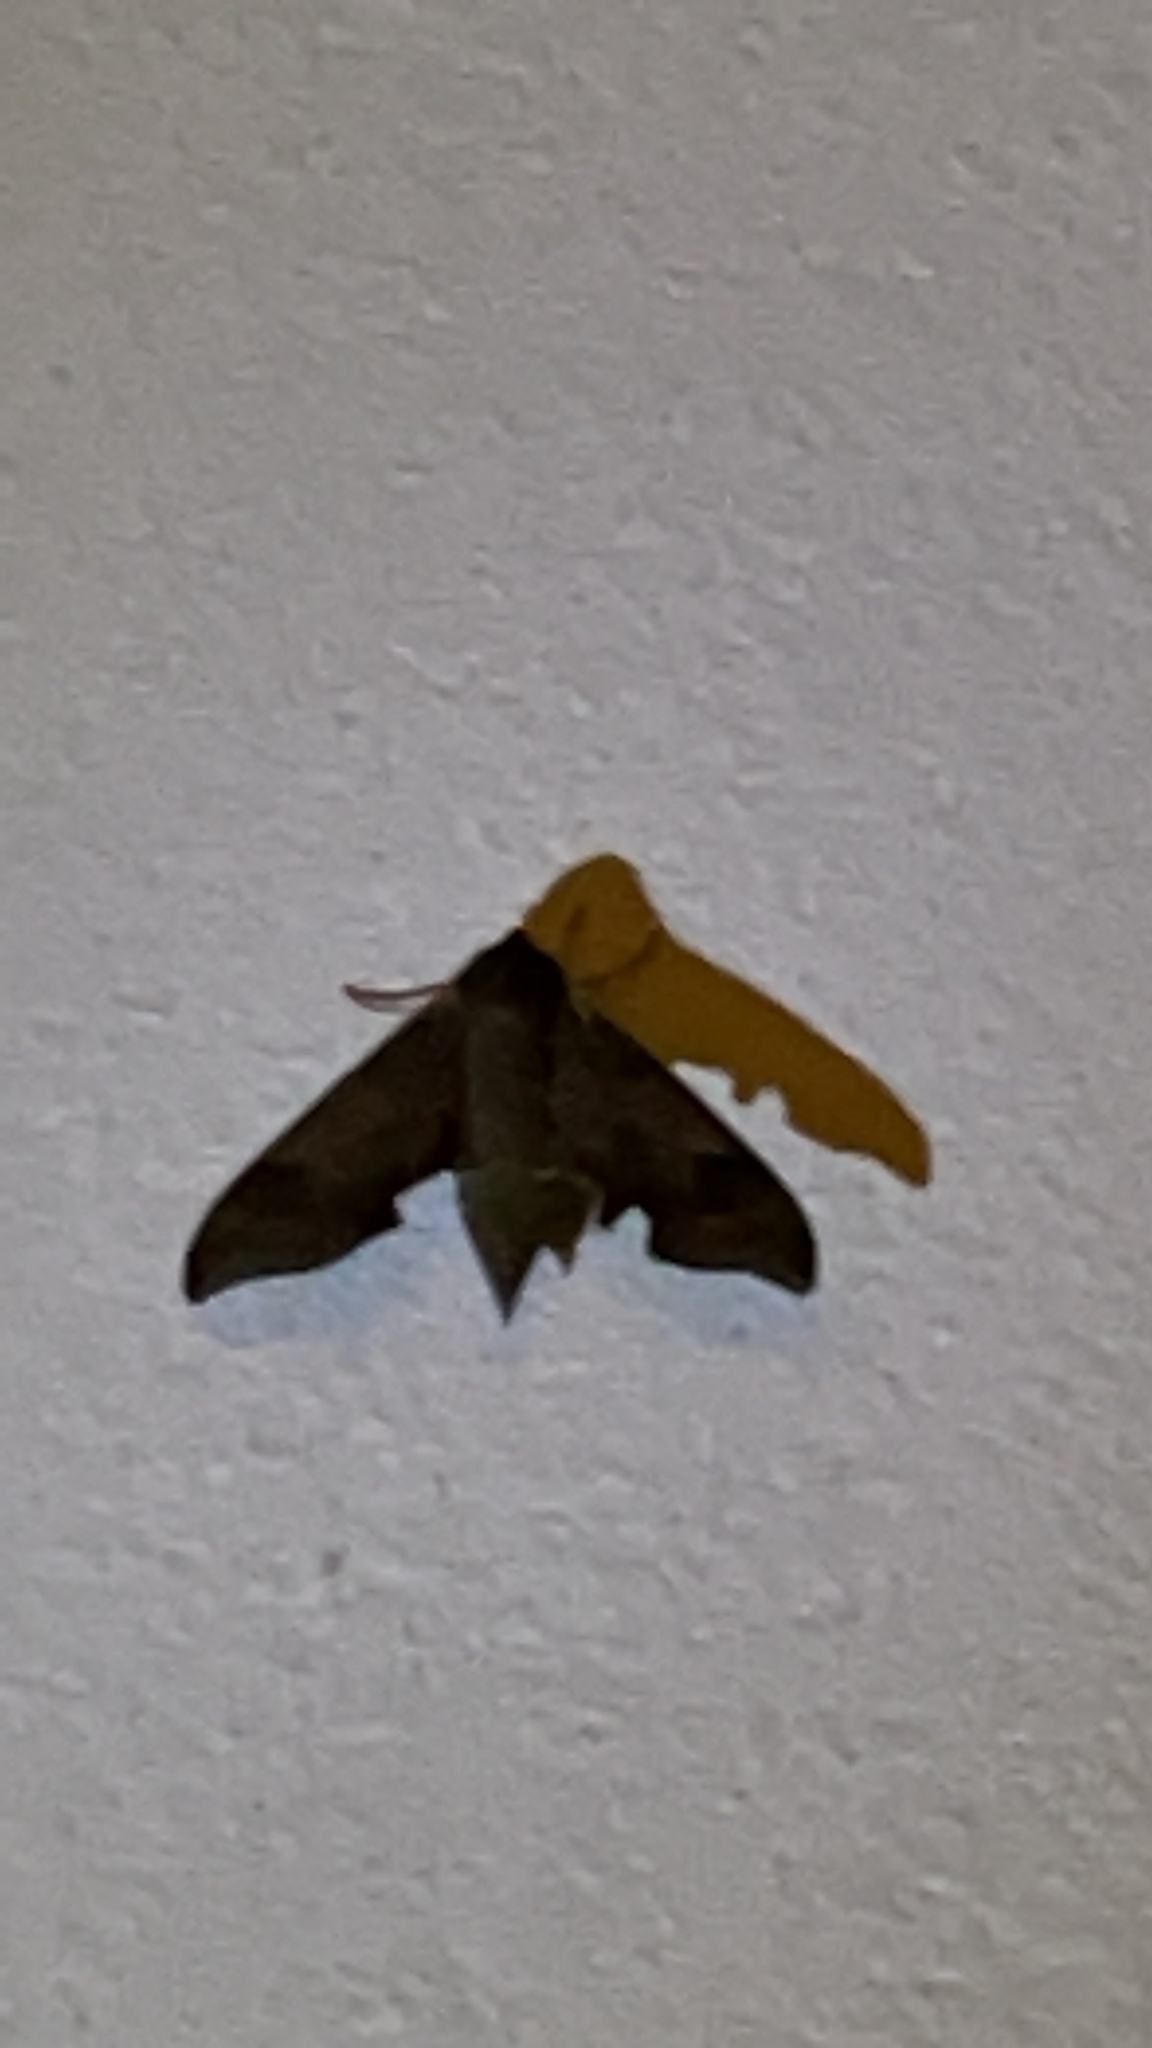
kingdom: Animalia
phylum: Arthropoda
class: Insecta
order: Lepidoptera
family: Sphingidae
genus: Darapsa
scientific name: Darapsa myron
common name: Hog sphinx
